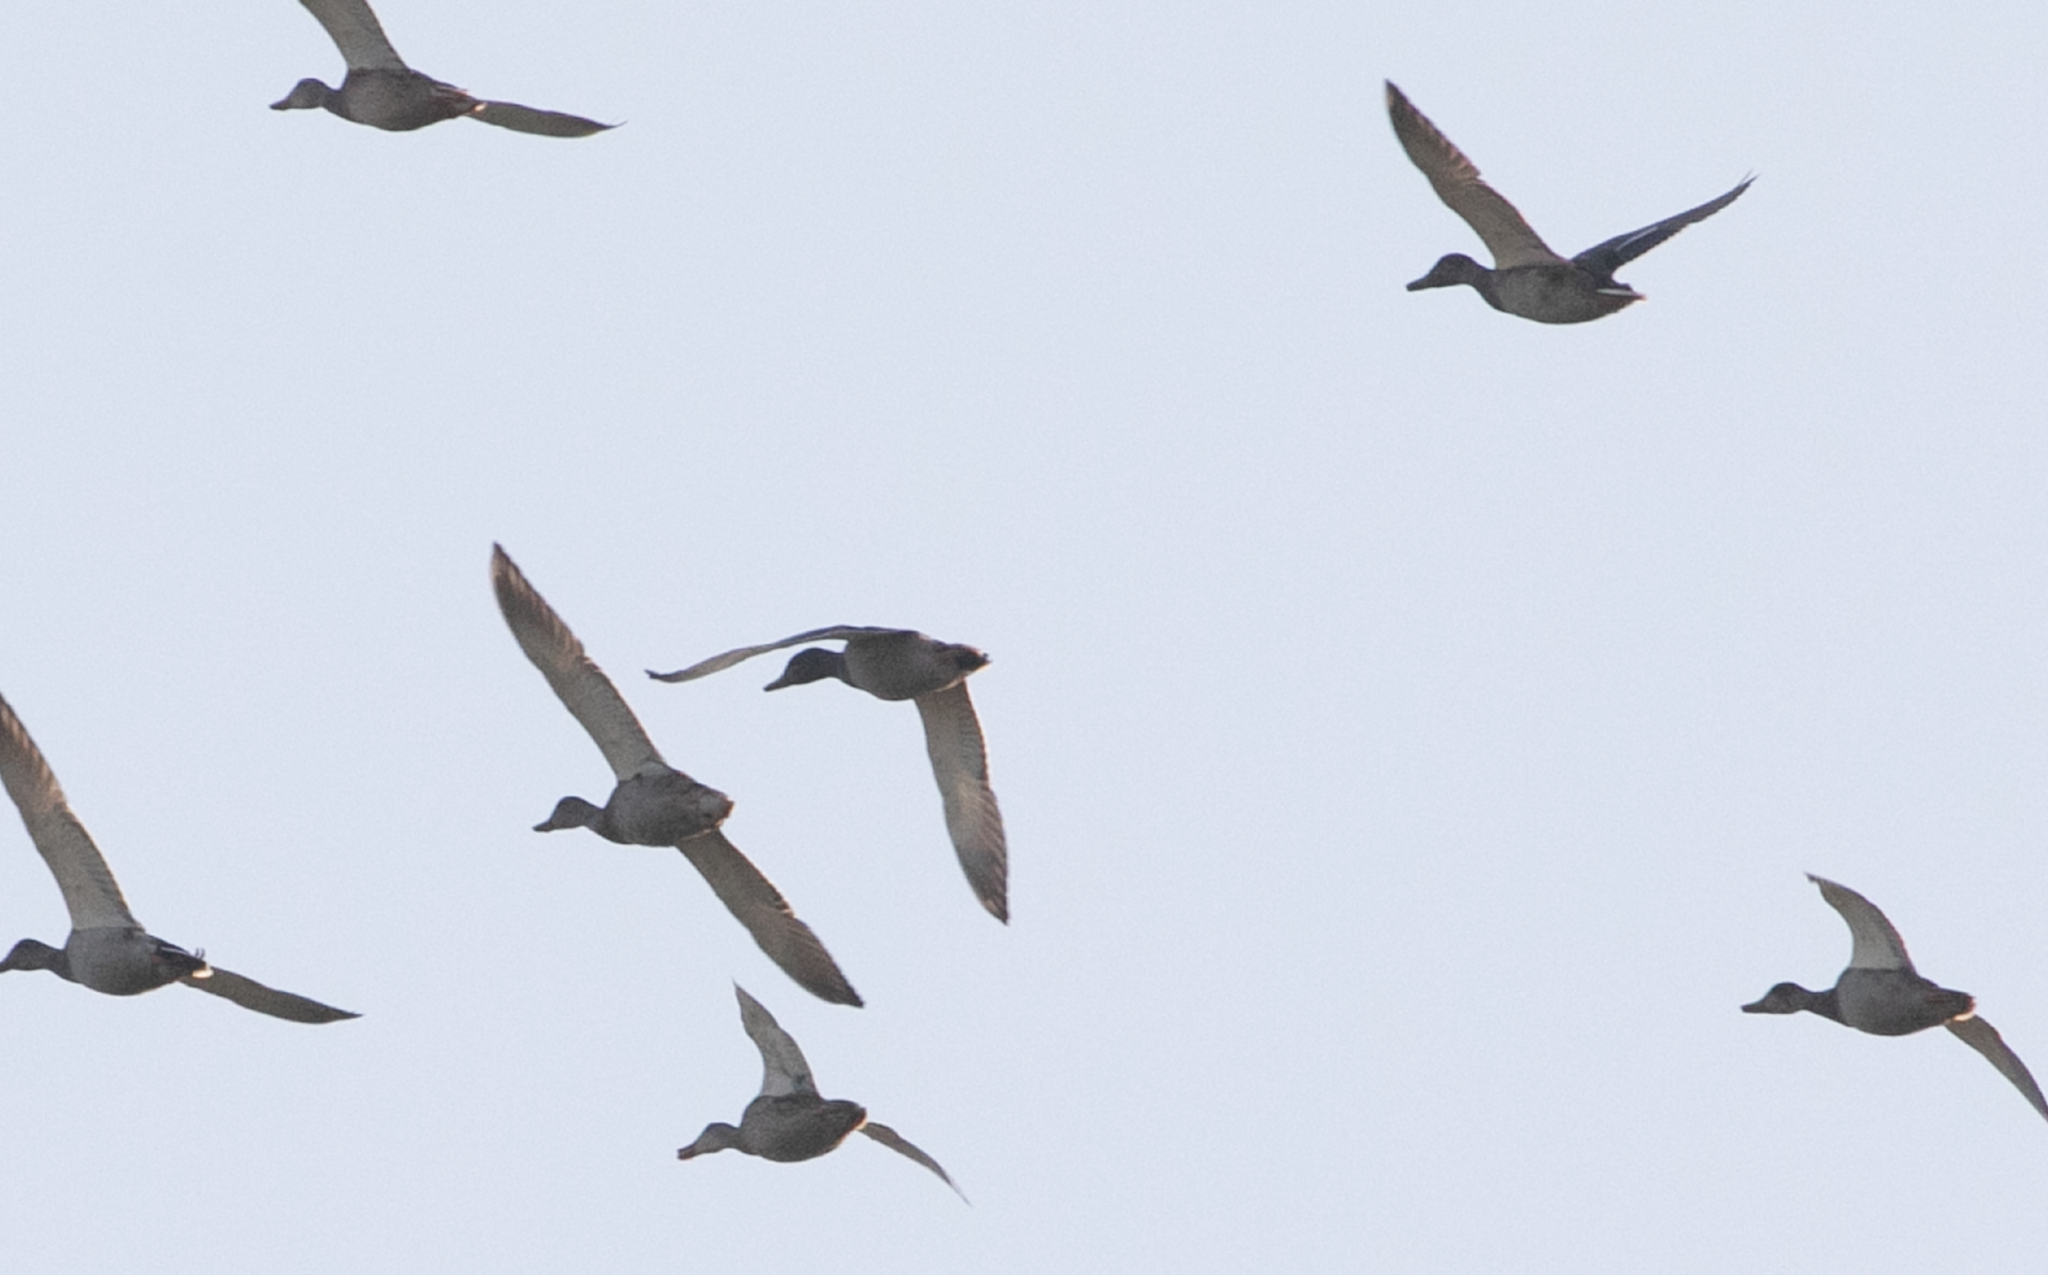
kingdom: Animalia
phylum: Chordata
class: Aves
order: Anseriformes
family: Anatidae
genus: Anas
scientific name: Anas platyrhynchos
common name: Mallard
